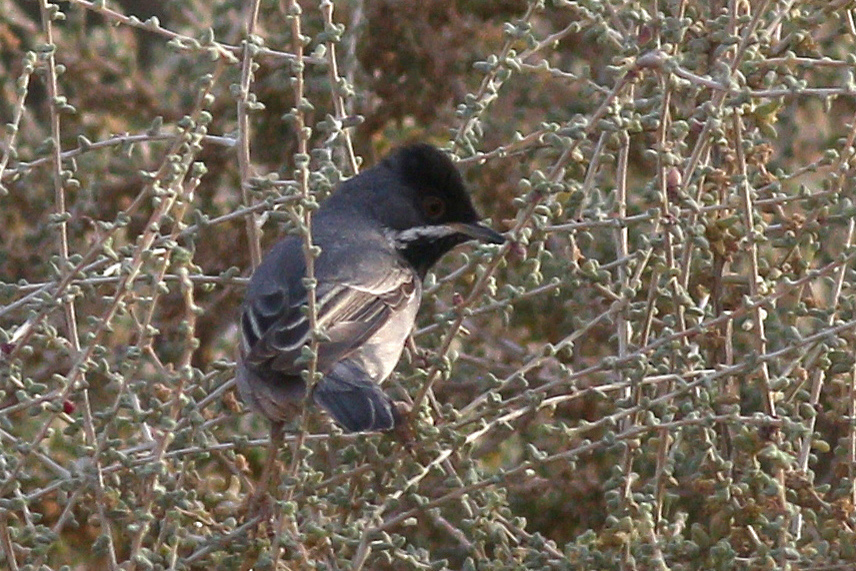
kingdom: Animalia
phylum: Chordata
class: Aves
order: Passeriformes
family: Sylviidae
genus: Sylvia
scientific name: Sylvia ruppeli
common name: Rüppell's warbler
